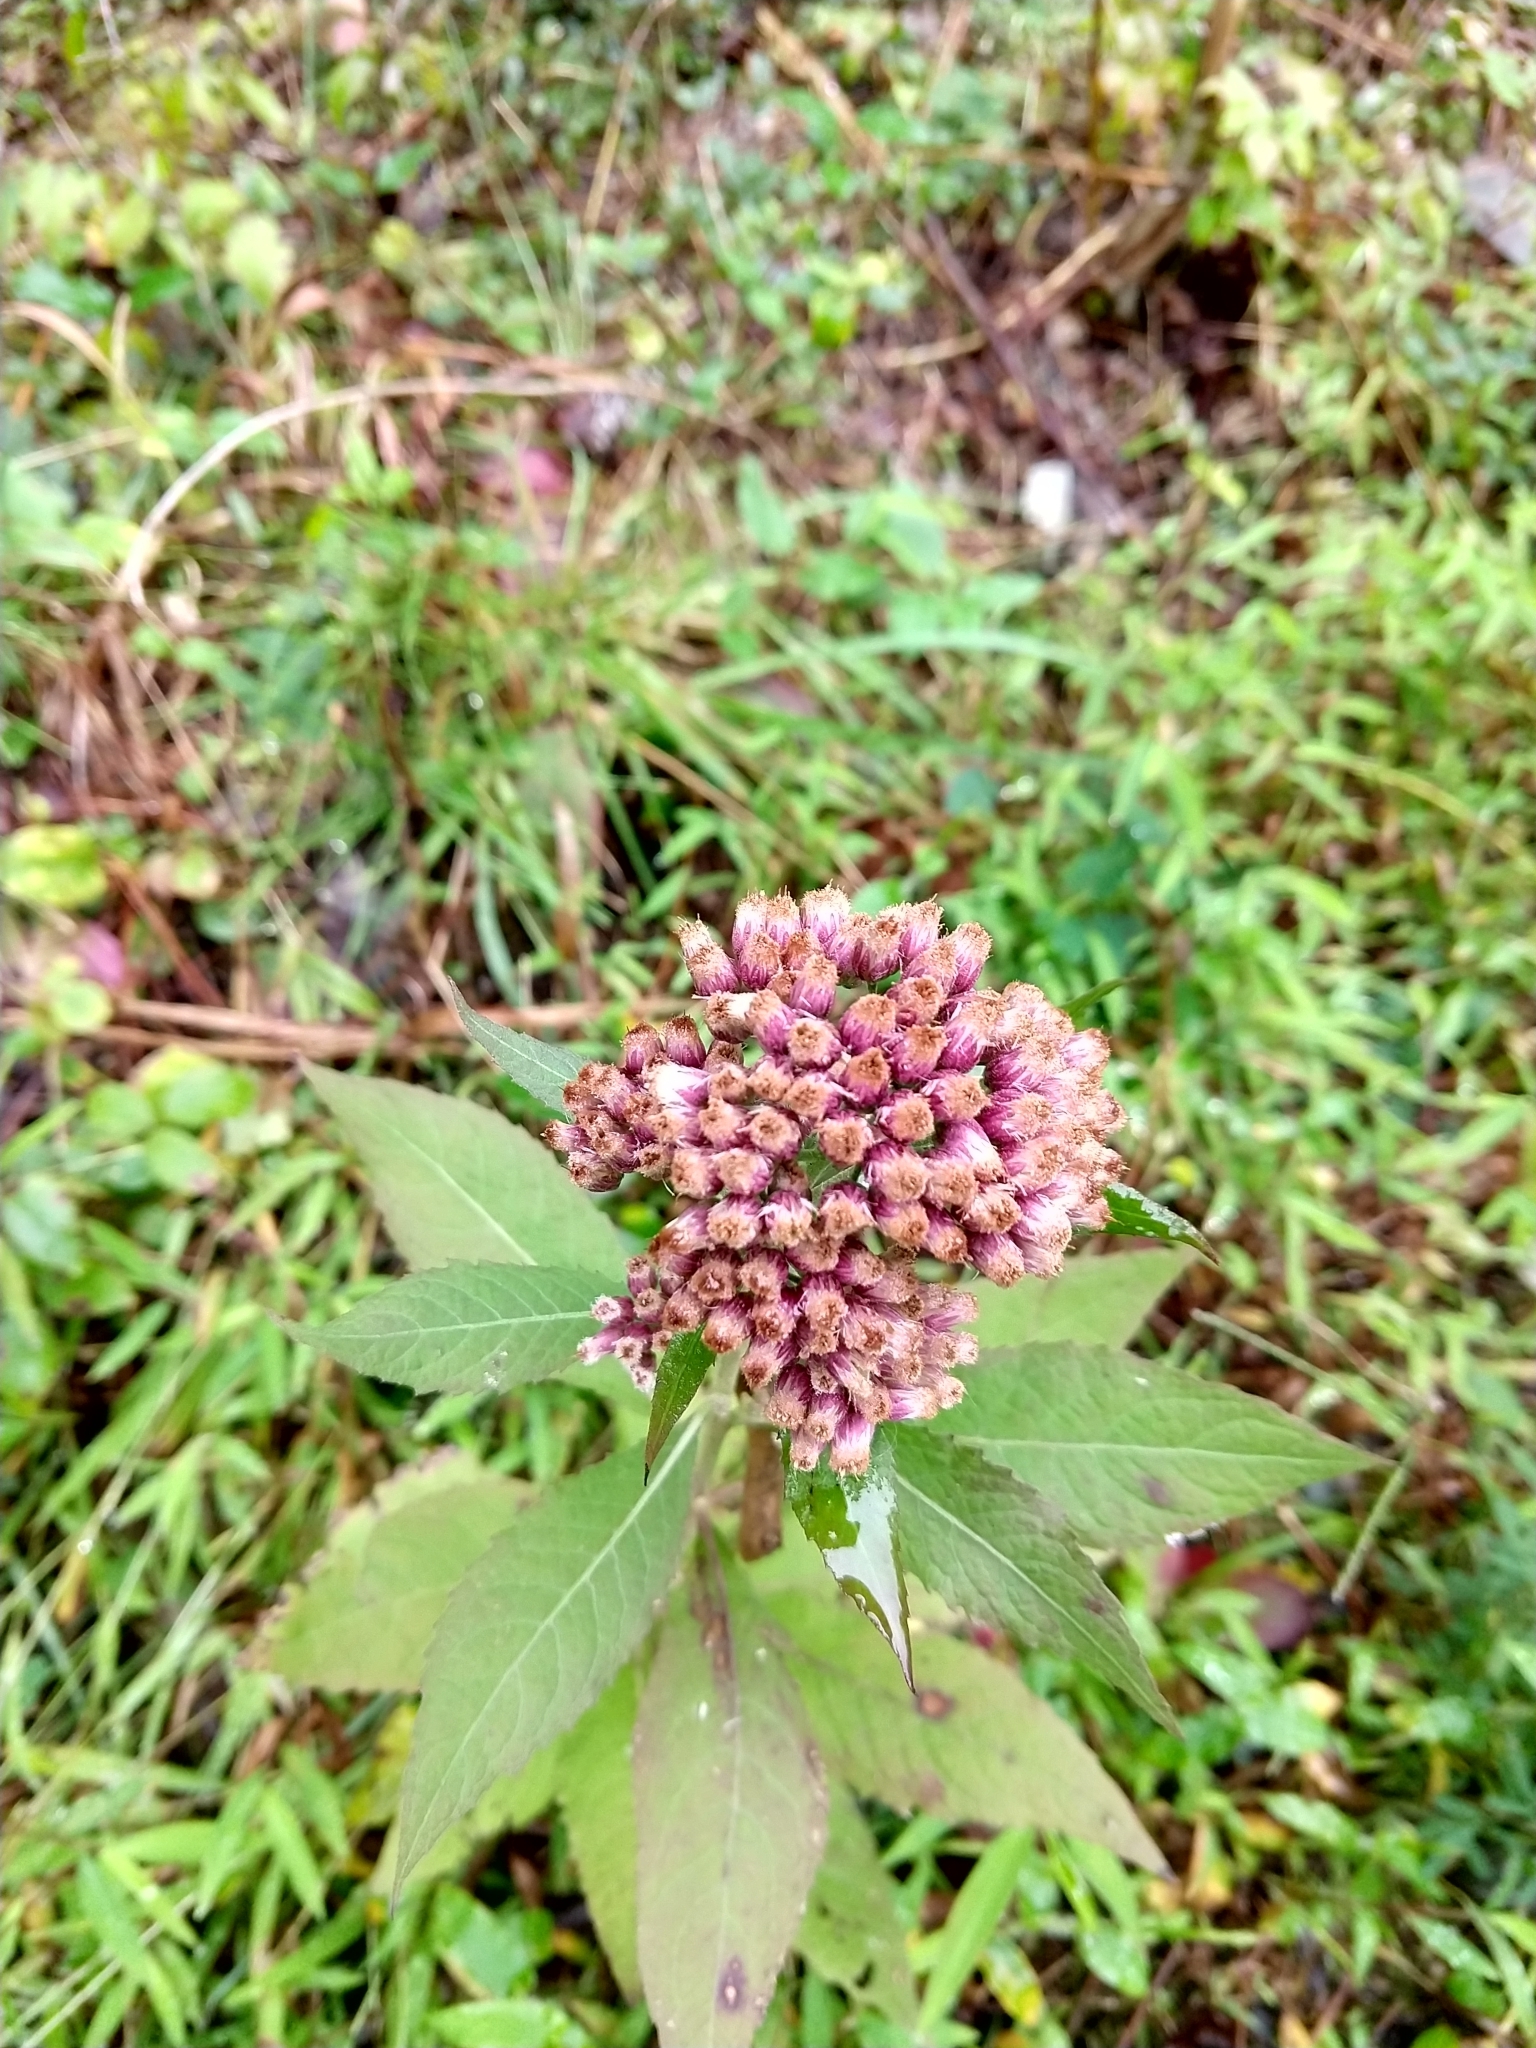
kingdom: Plantae
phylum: Tracheophyta
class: Magnoliopsida
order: Asterales
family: Asteraceae
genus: Pluchea
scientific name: Pluchea camphorata
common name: Camphor pluchea
